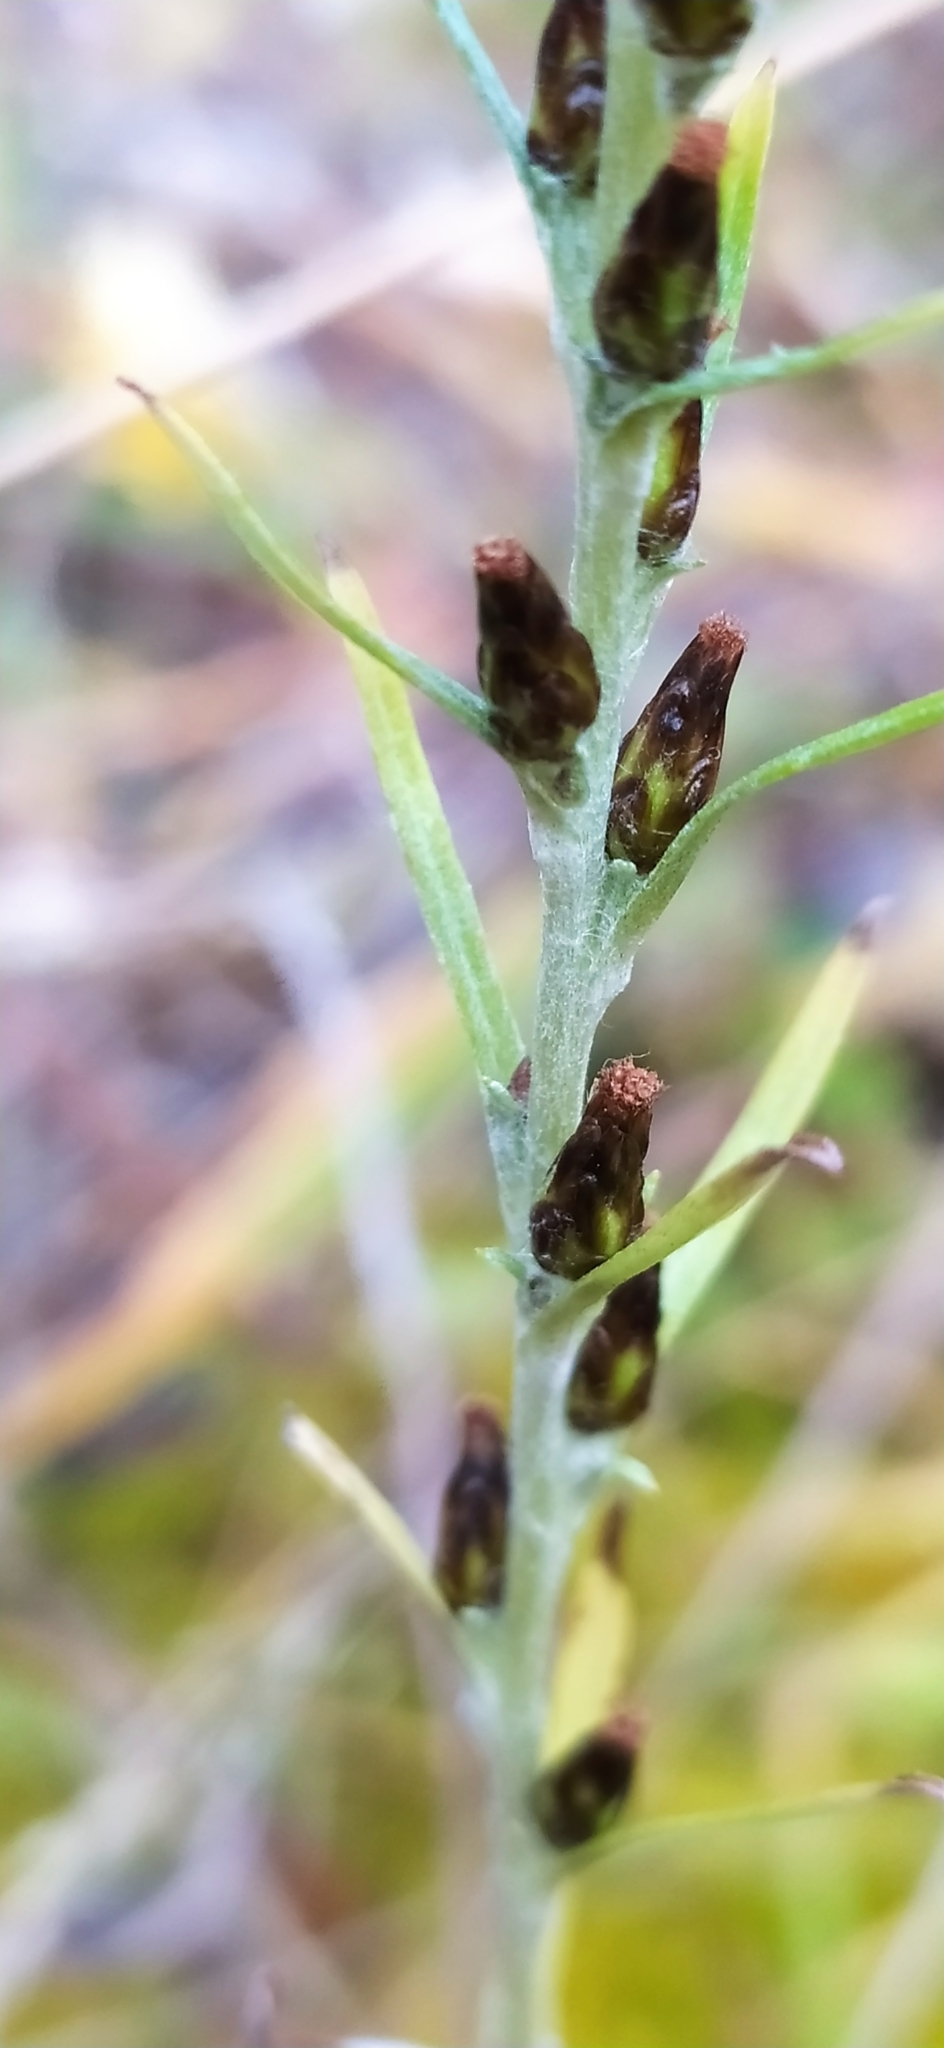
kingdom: Plantae
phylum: Tracheophyta
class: Magnoliopsida
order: Asterales
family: Asteraceae
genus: Omalotheca
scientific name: Omalotheca sylvatica
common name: Heath cudweed
